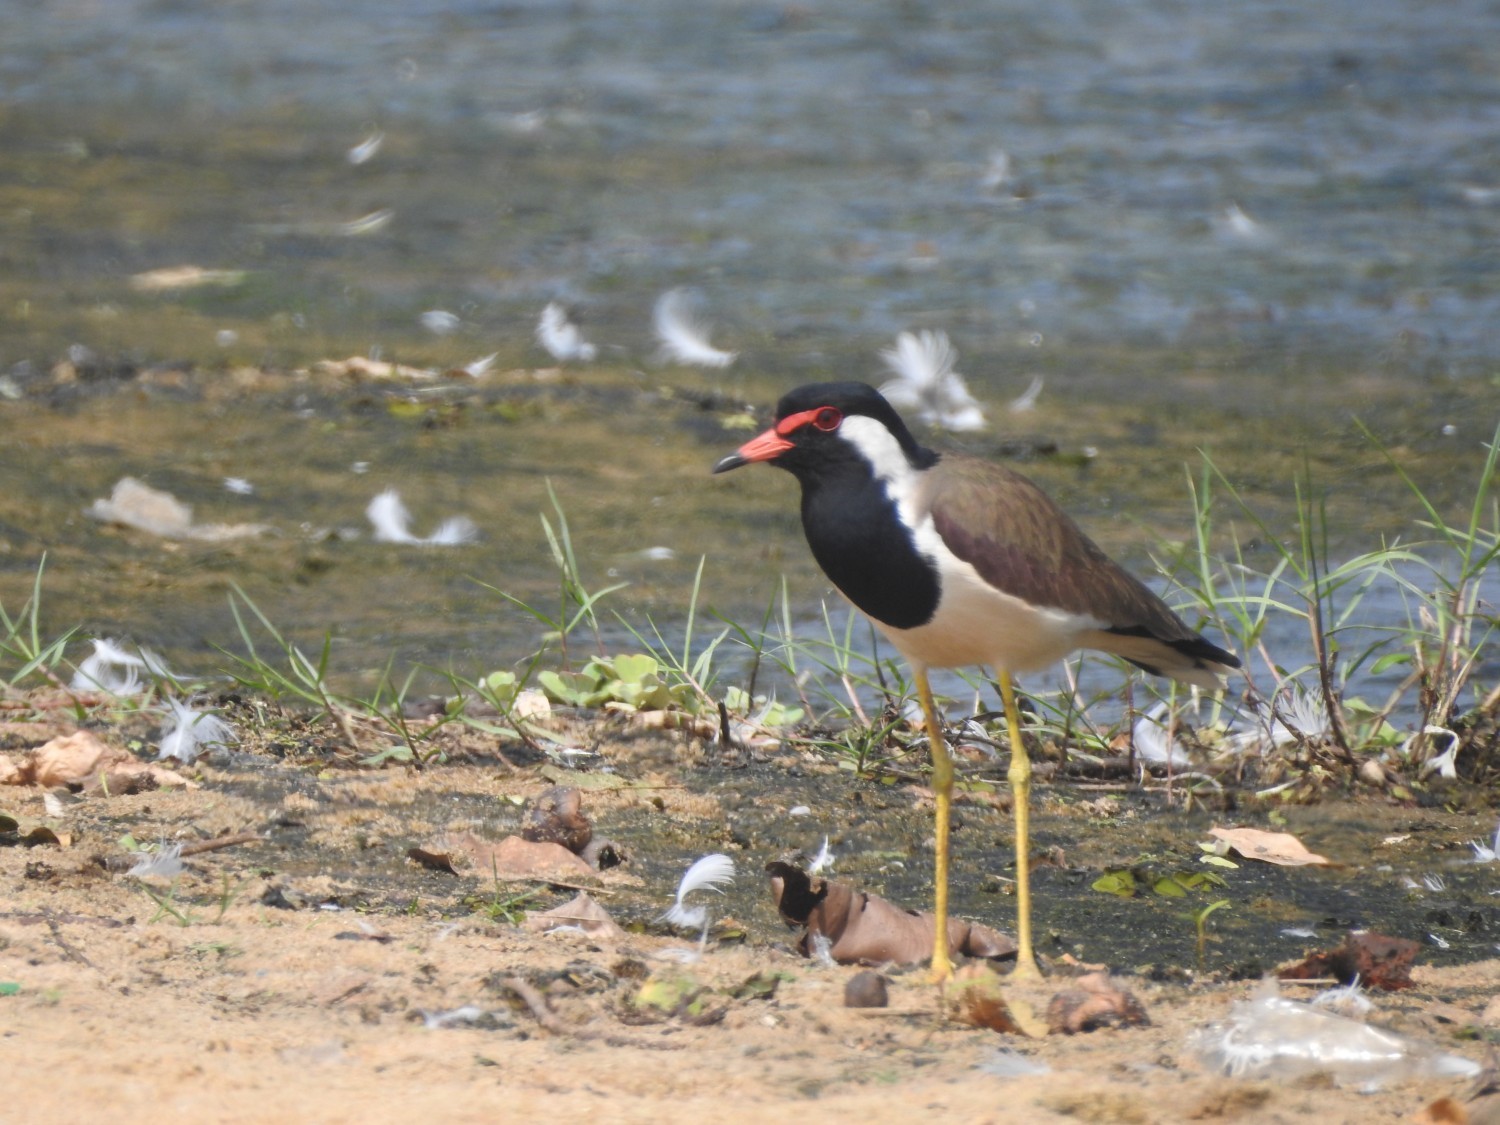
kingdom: Animalia
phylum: Chordata
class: Aves
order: Charadriiformes
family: Charadriidae
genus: Vanellus
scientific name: Vanellus indicus
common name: Red-wattled lapwing
